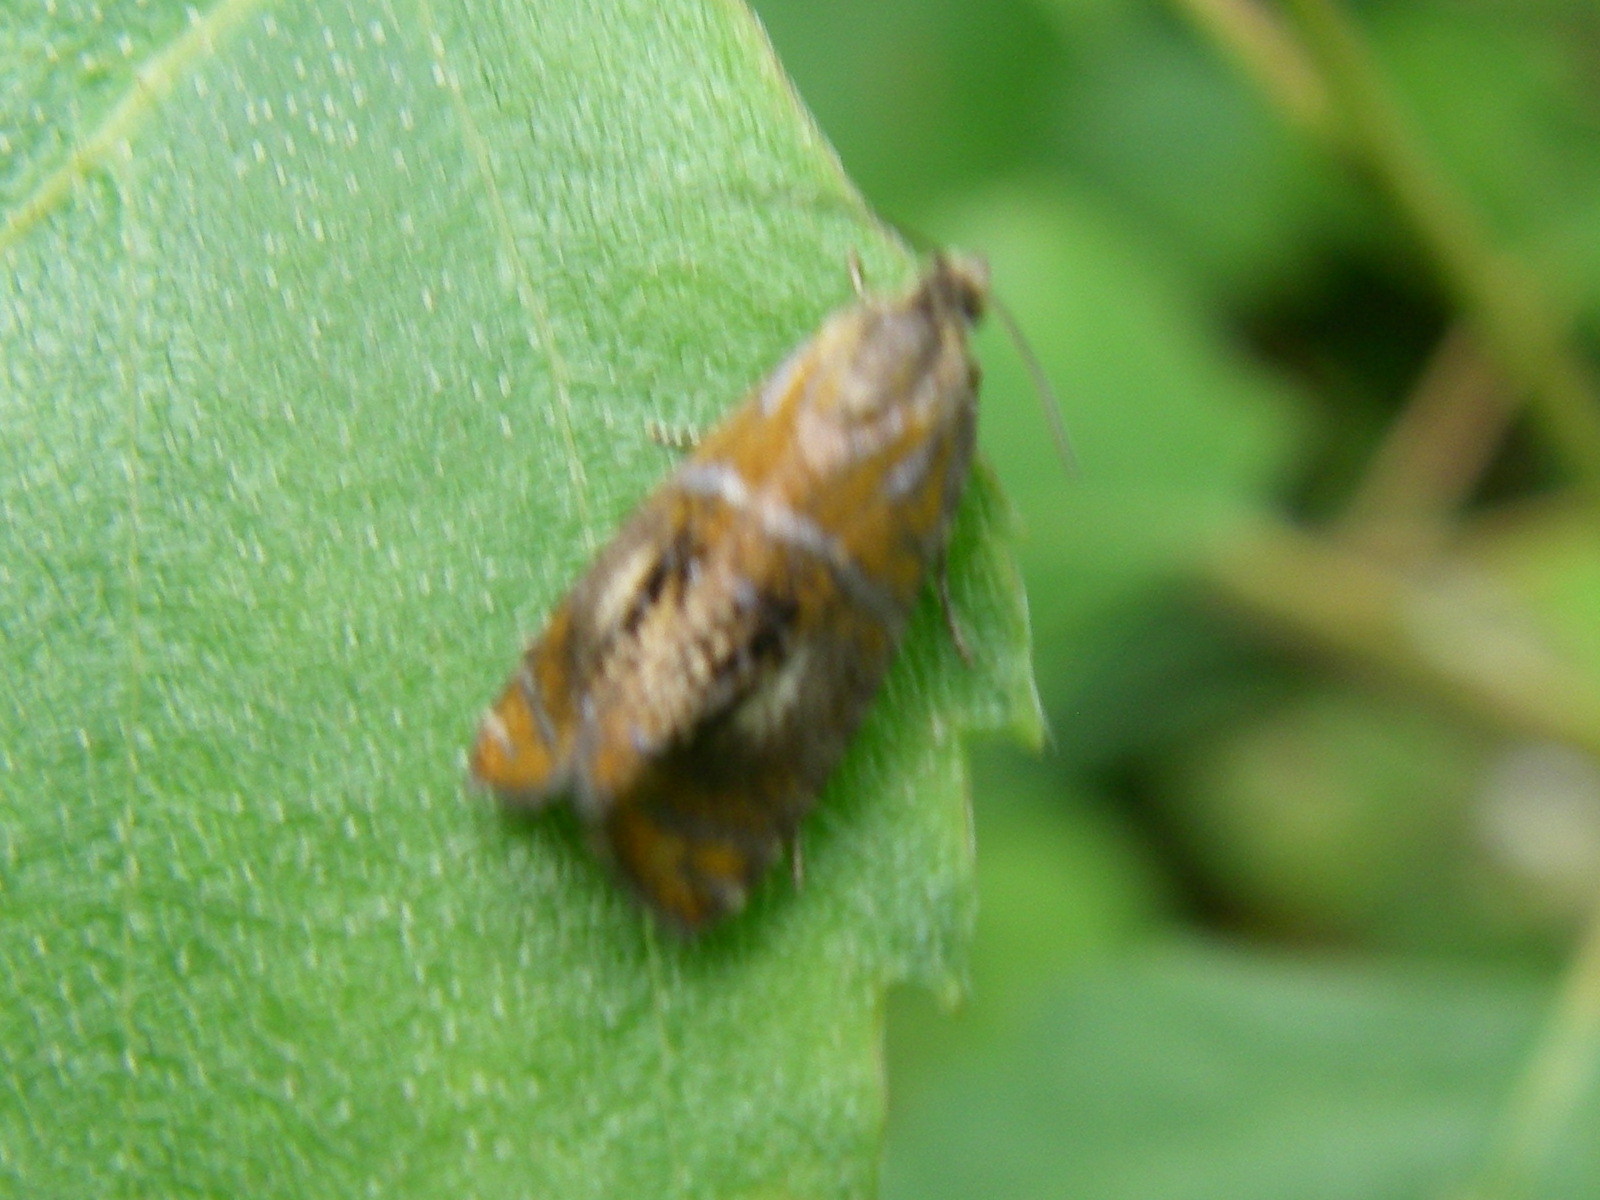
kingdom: Animalia
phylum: Arthropoda
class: Insecta
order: Lepidoptera
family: Tortricidae
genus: Olethreutes
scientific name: Olethreutes arcuella
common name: Arched marble
